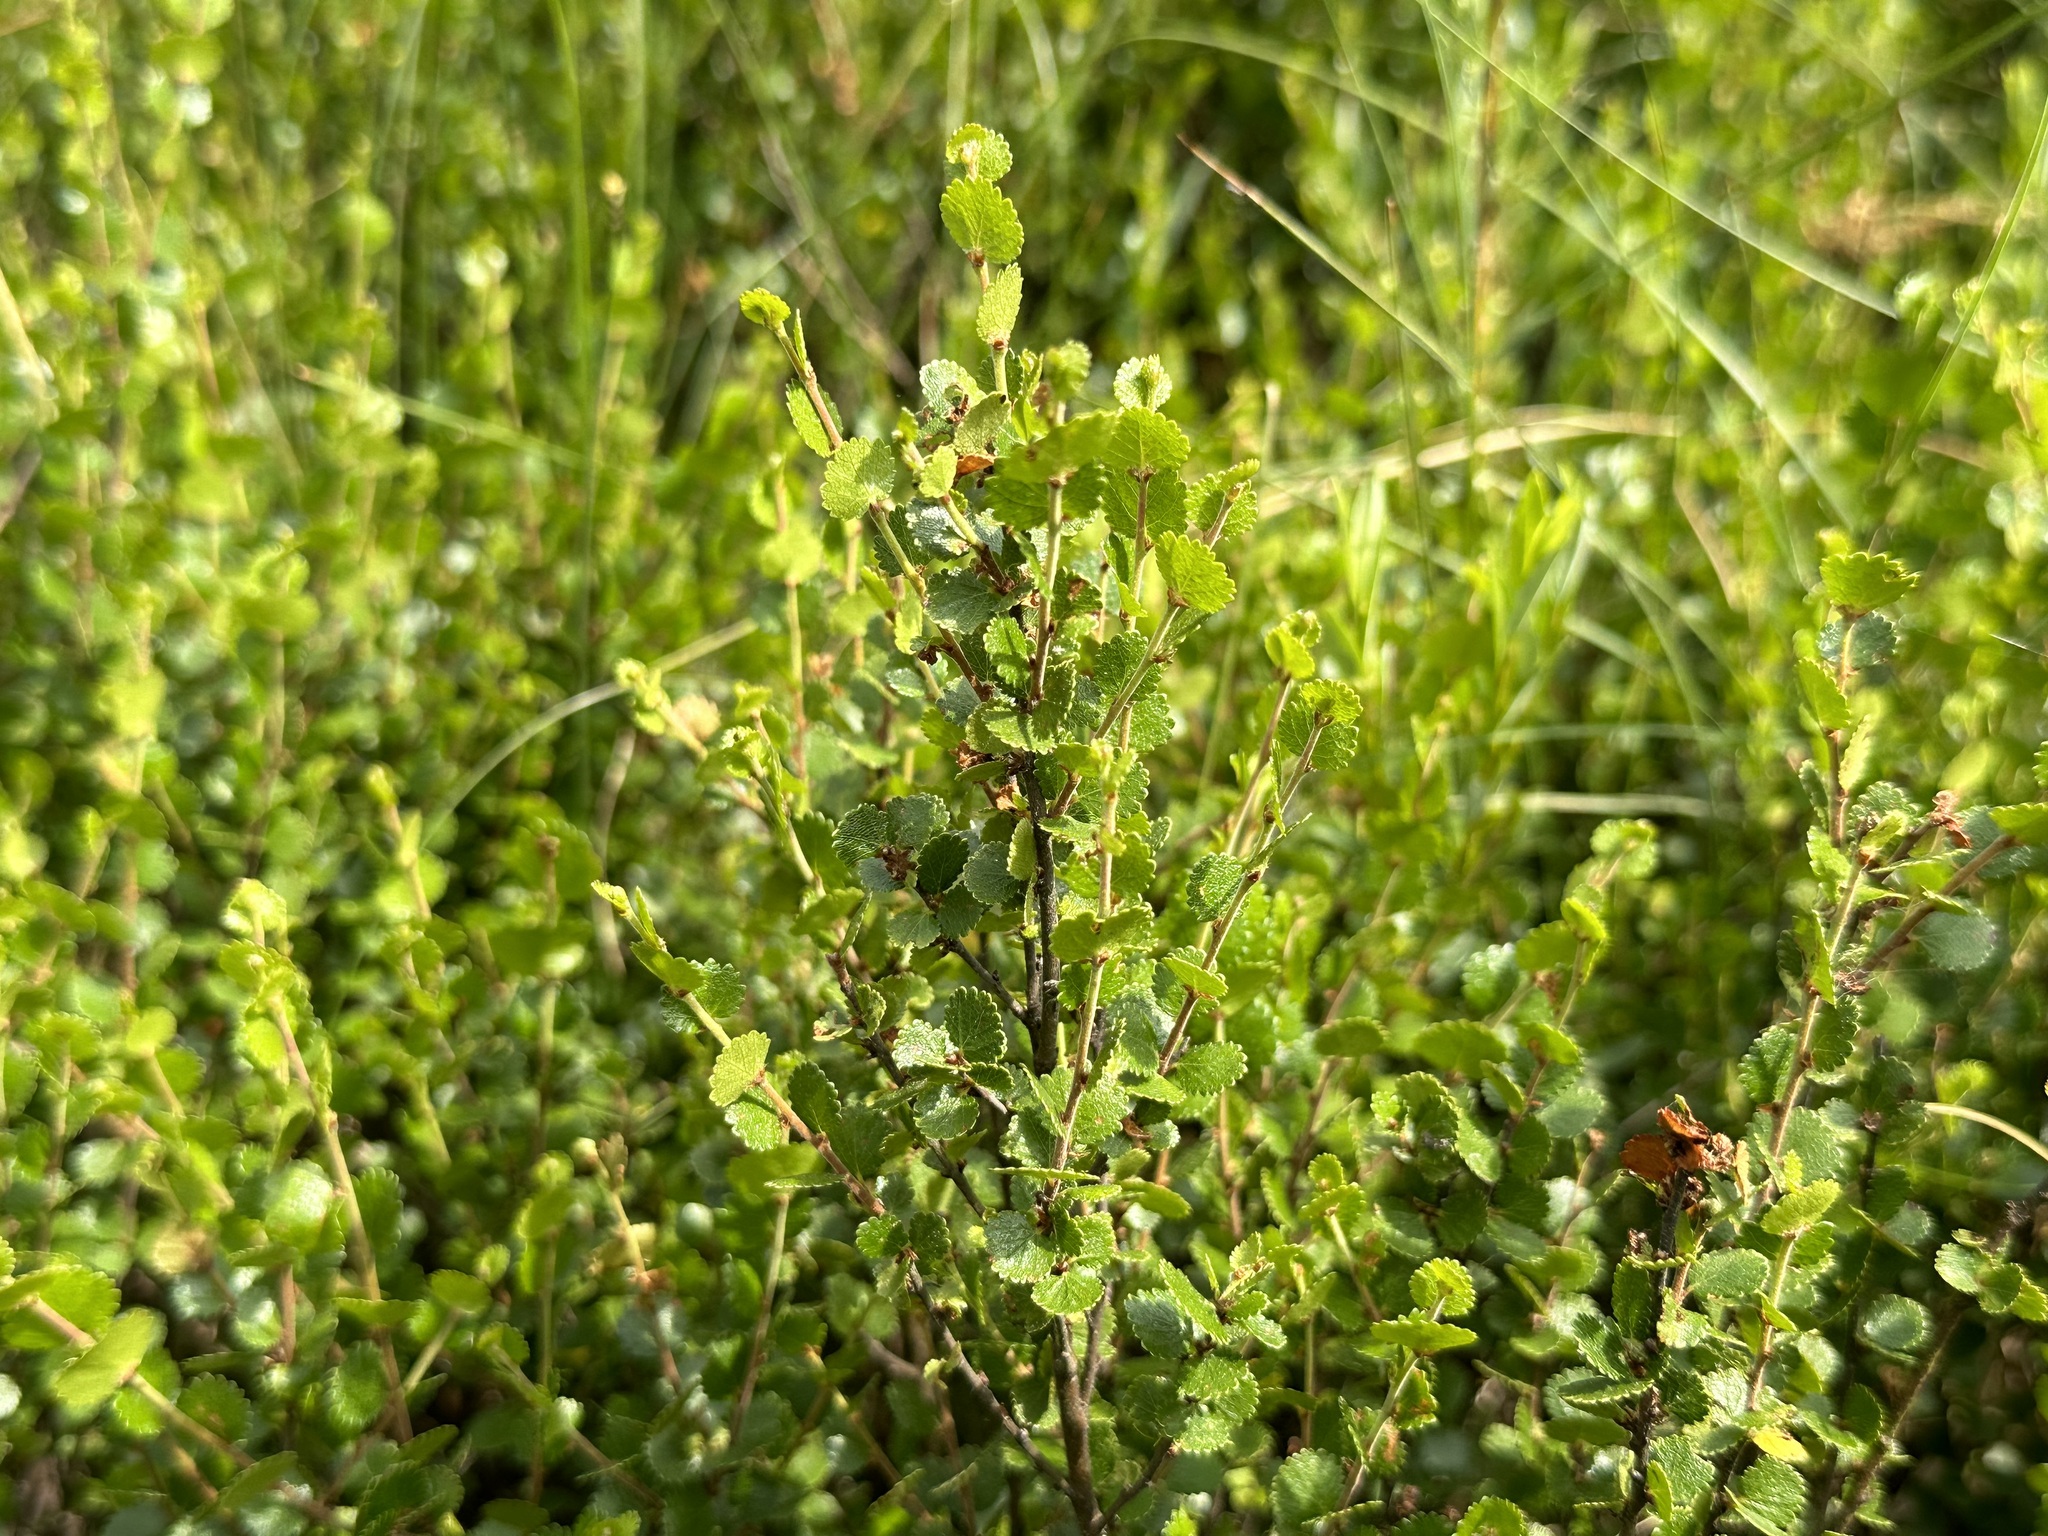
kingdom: Plantae
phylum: Tracheophyta
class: Magnoliopsida
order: Fagales
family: Betulaceae
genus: Betula
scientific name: Betula nana
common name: Arctic dwarf birch
